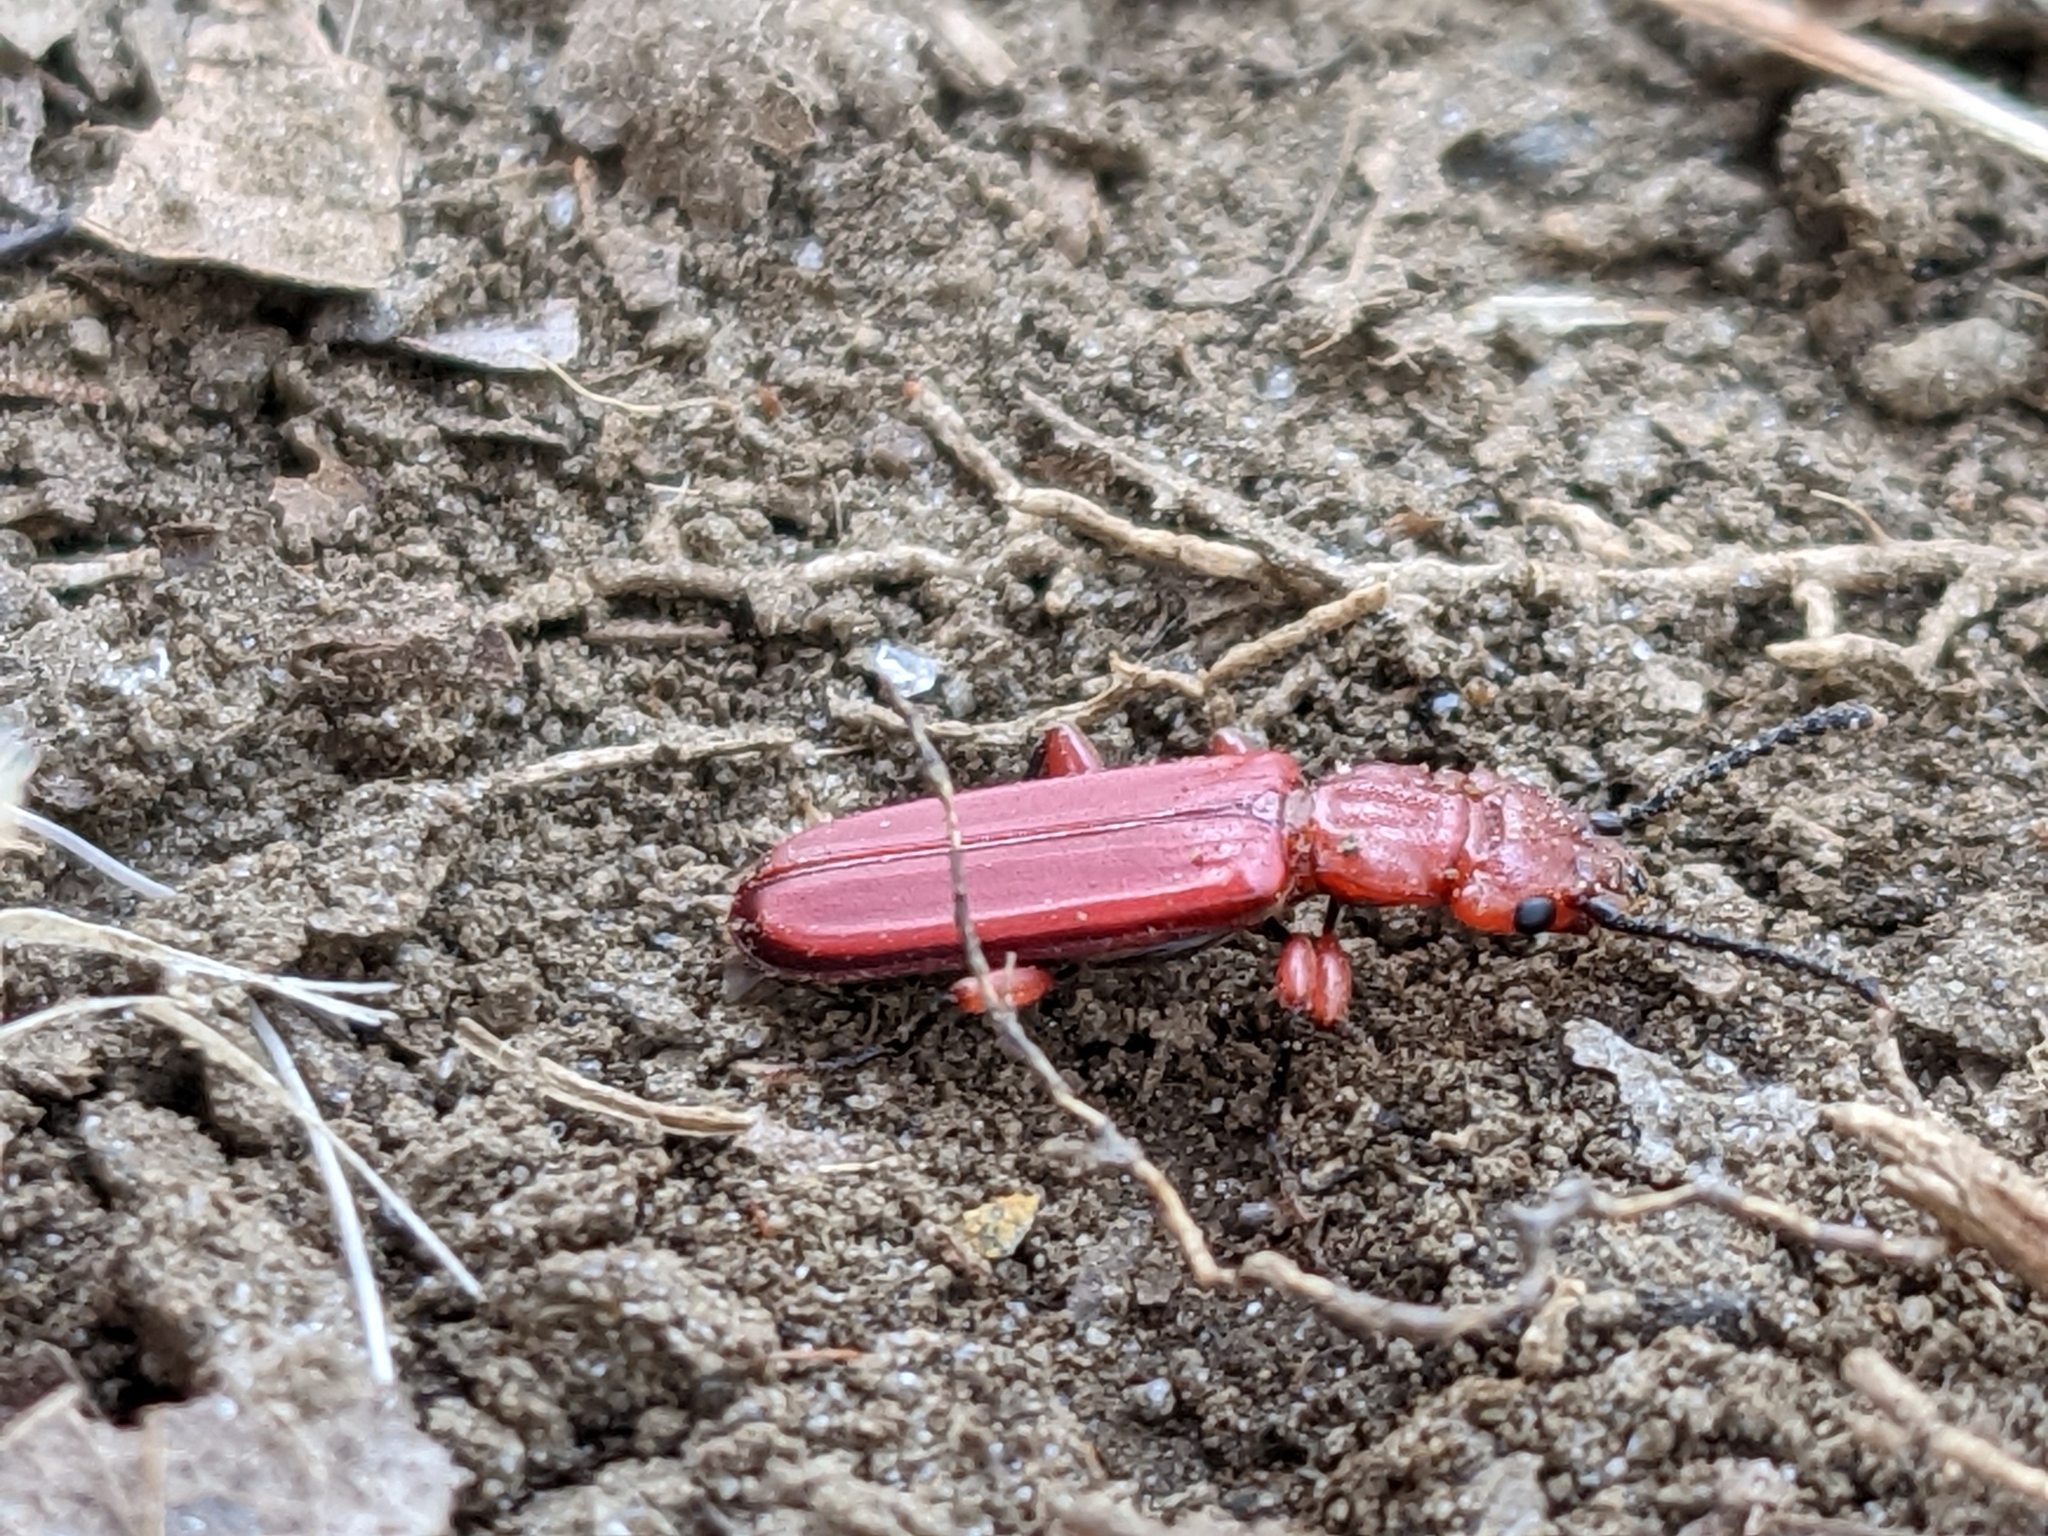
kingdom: Animalia
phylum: Arthropoda
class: Insecta
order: Coleoptera
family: Cucujidae
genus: Cucujus
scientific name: Cucujus clavipes
